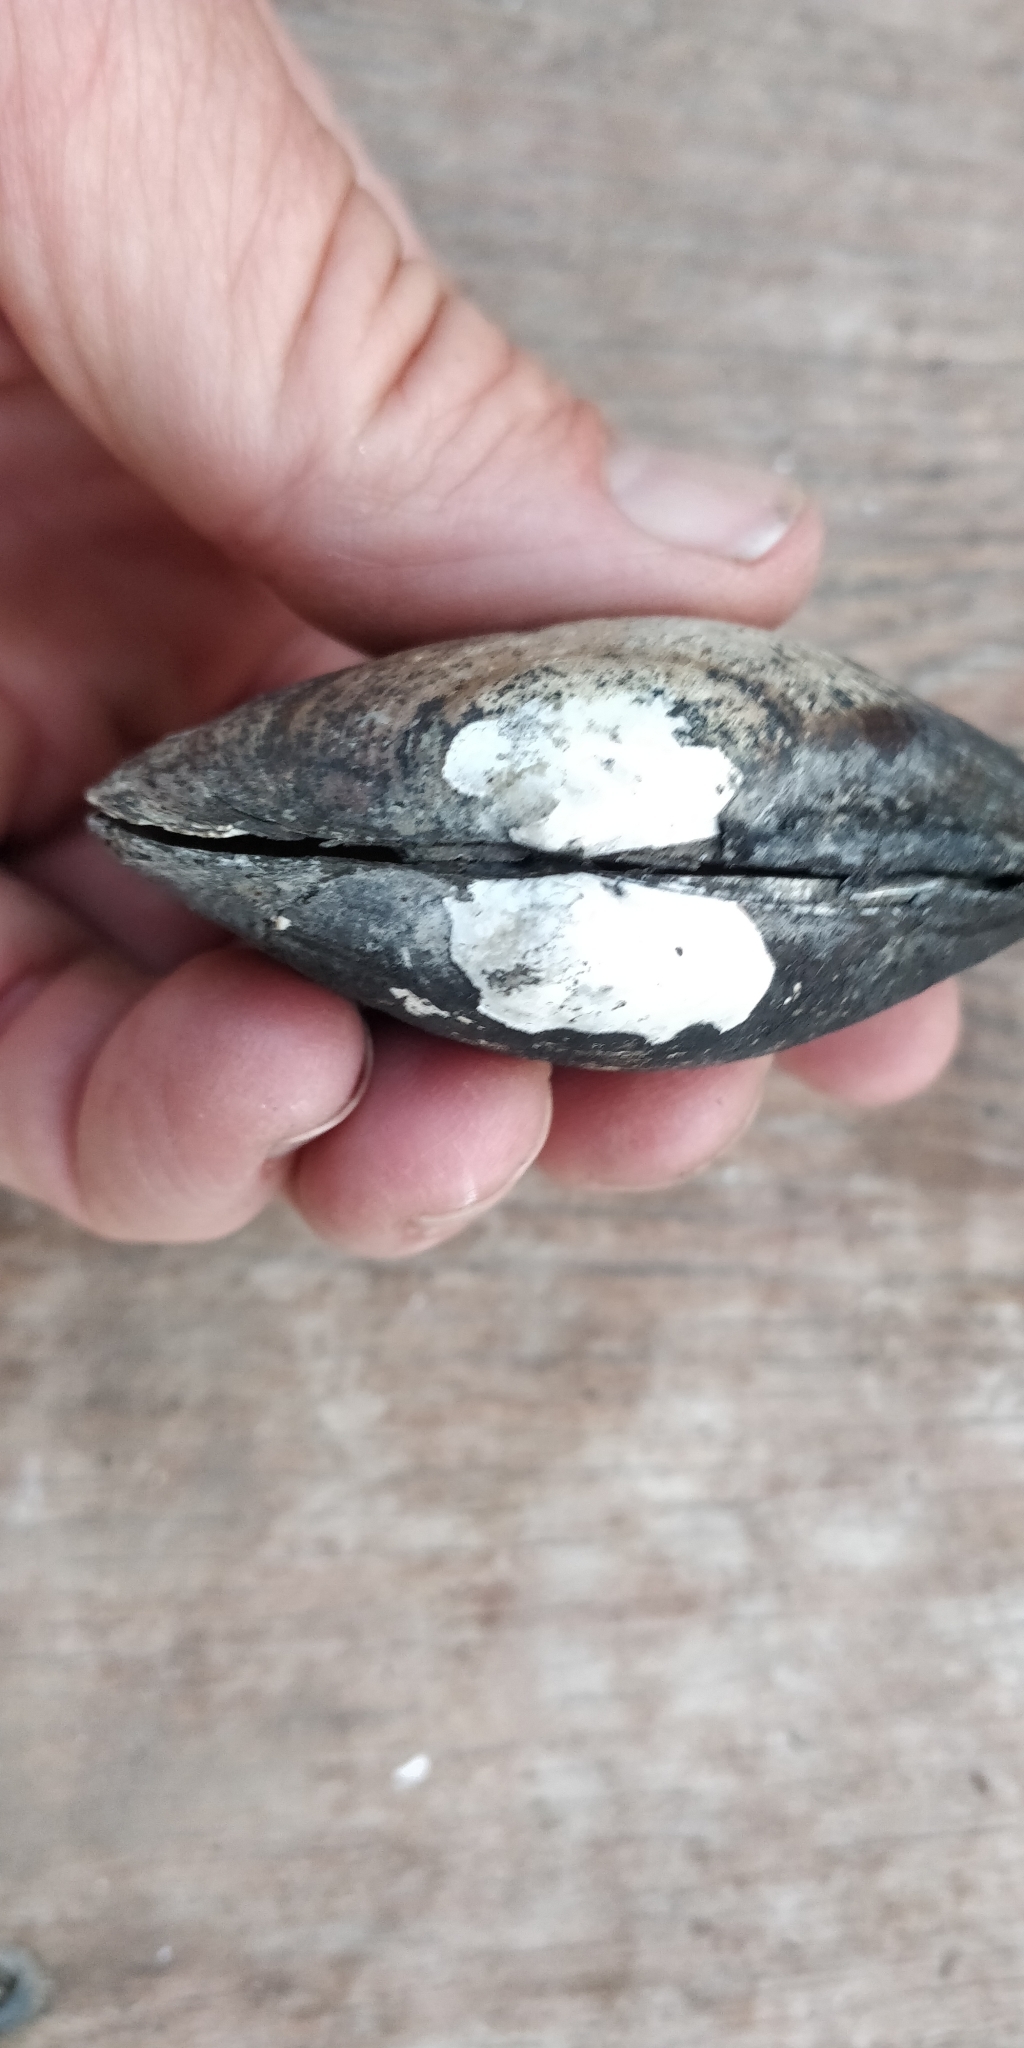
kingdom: Animalia
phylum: Mollusca
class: Bivalvia
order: Unionida
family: Unionidae
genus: Lampsilis
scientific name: Lampsilis siliquoidea
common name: Fatmucket
